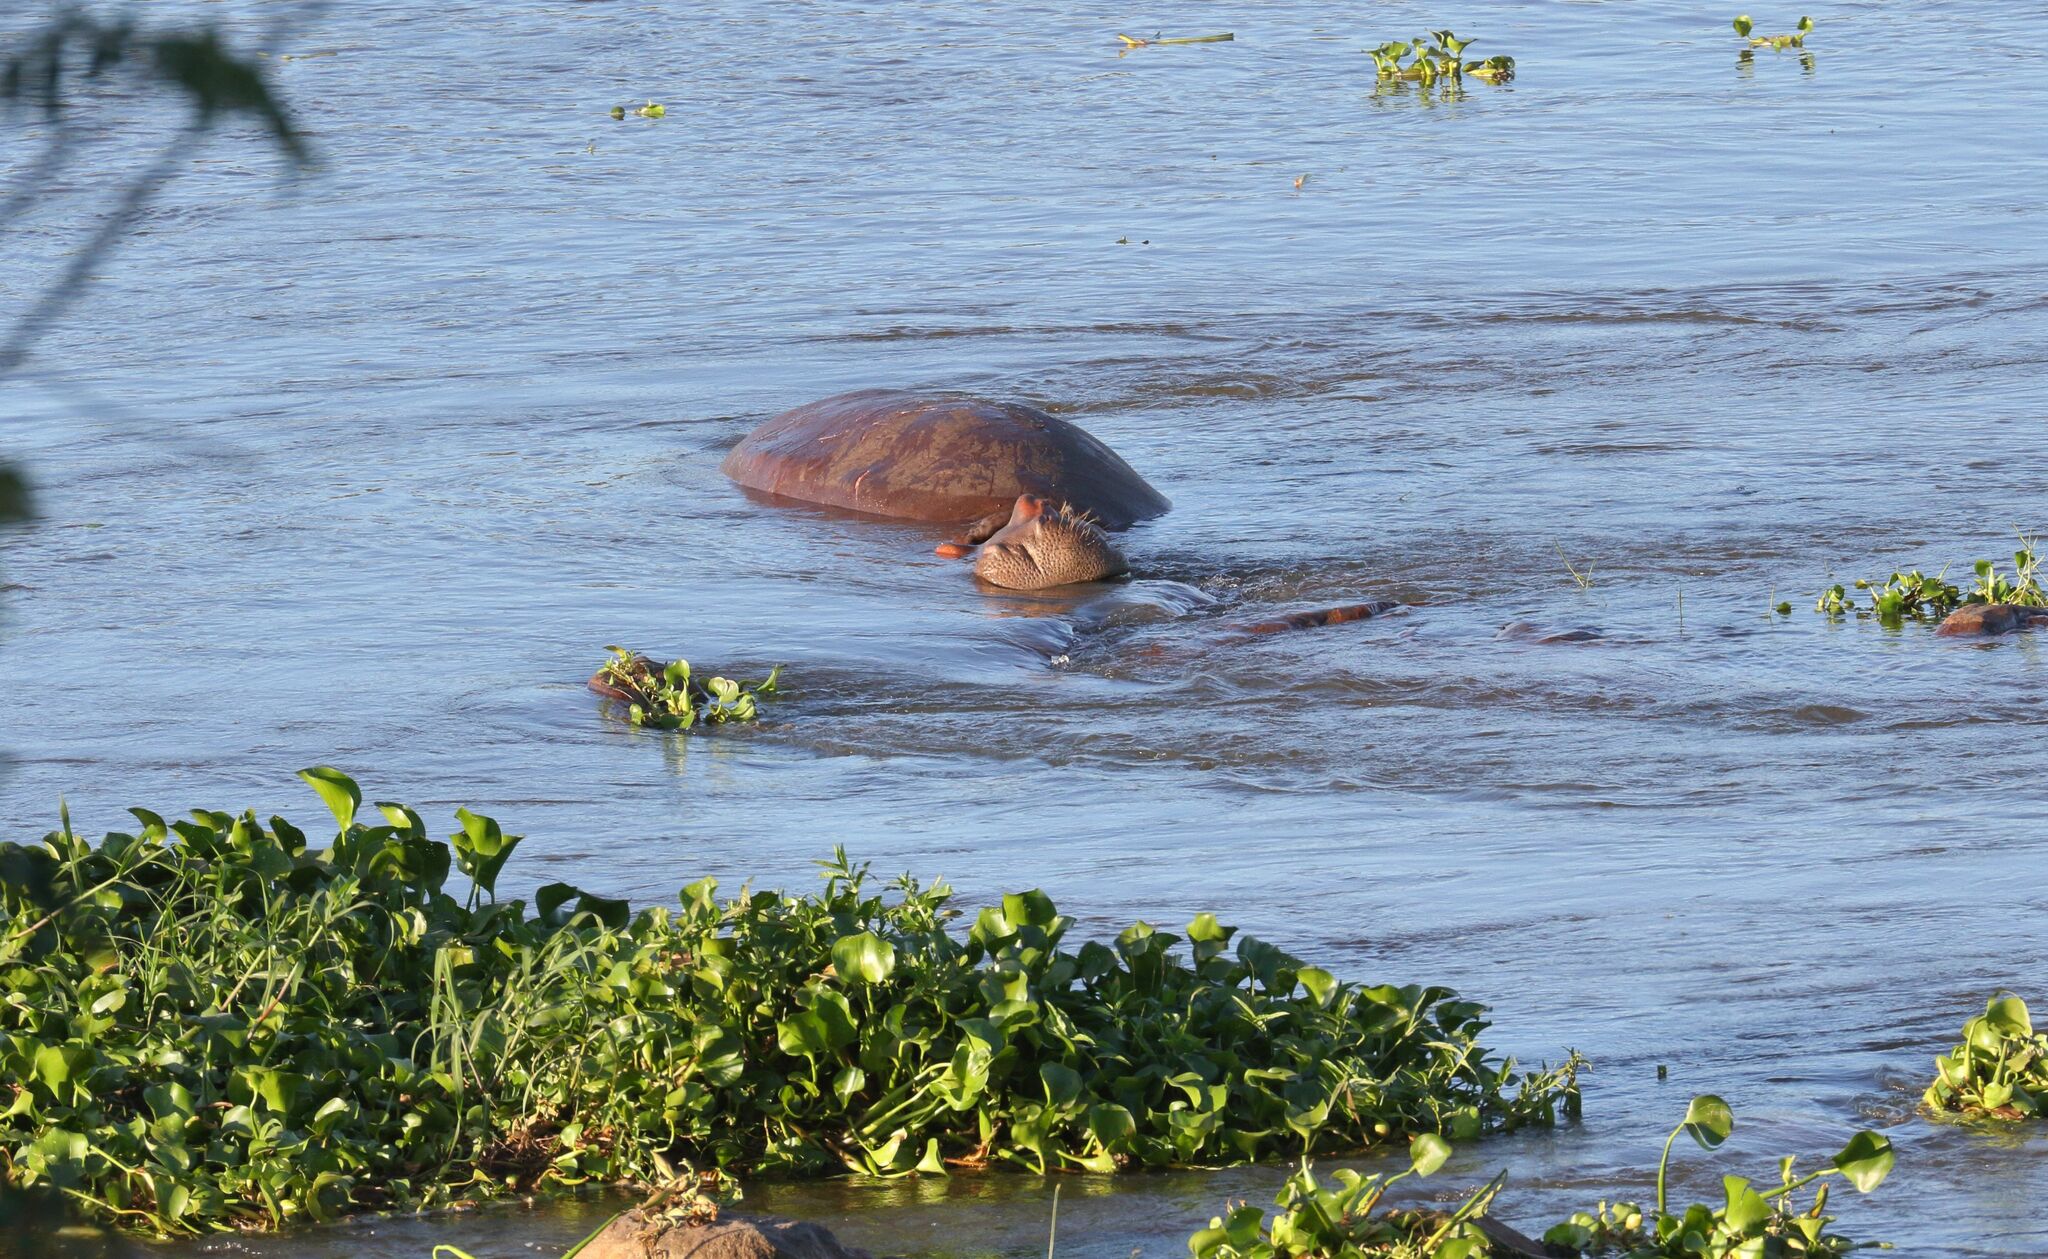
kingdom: Animalia
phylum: Chordata
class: Mammalia
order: Artiodactyla
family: Hippopotamidae
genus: Hippopotamus
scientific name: Hippopotamus amphibius
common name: Common hippopotamus
